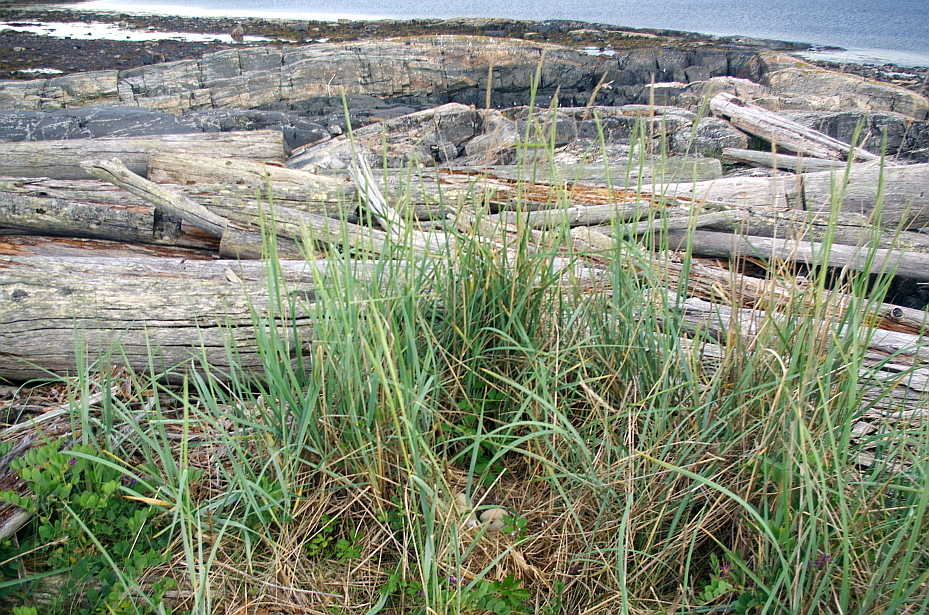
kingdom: Animalia
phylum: Chordata
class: Aves
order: Anseriformes
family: Anatidae
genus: Somateria
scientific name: Somateria mollissima
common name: Common eider
